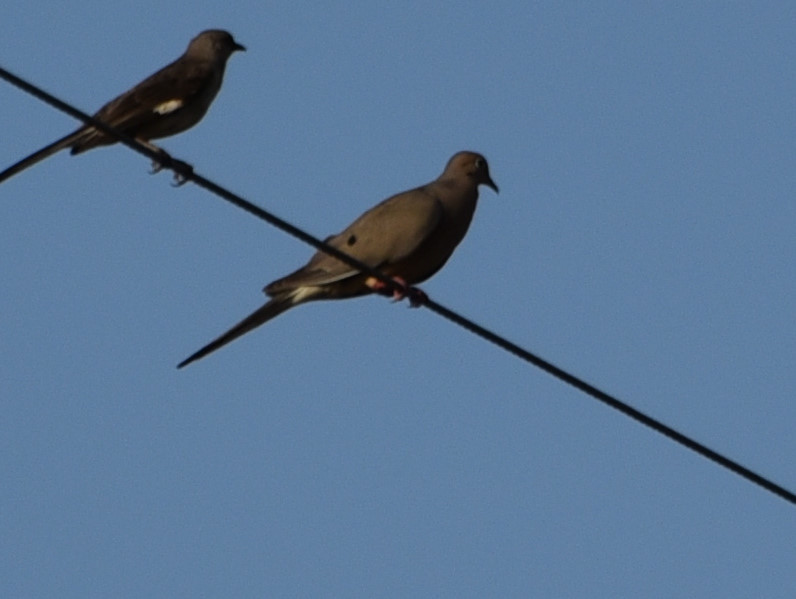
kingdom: Animalia
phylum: Chordata
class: Aves
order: Columbiformes
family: Columbidae
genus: Zenaida
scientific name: Zenaida macroura
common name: Mourning dove
